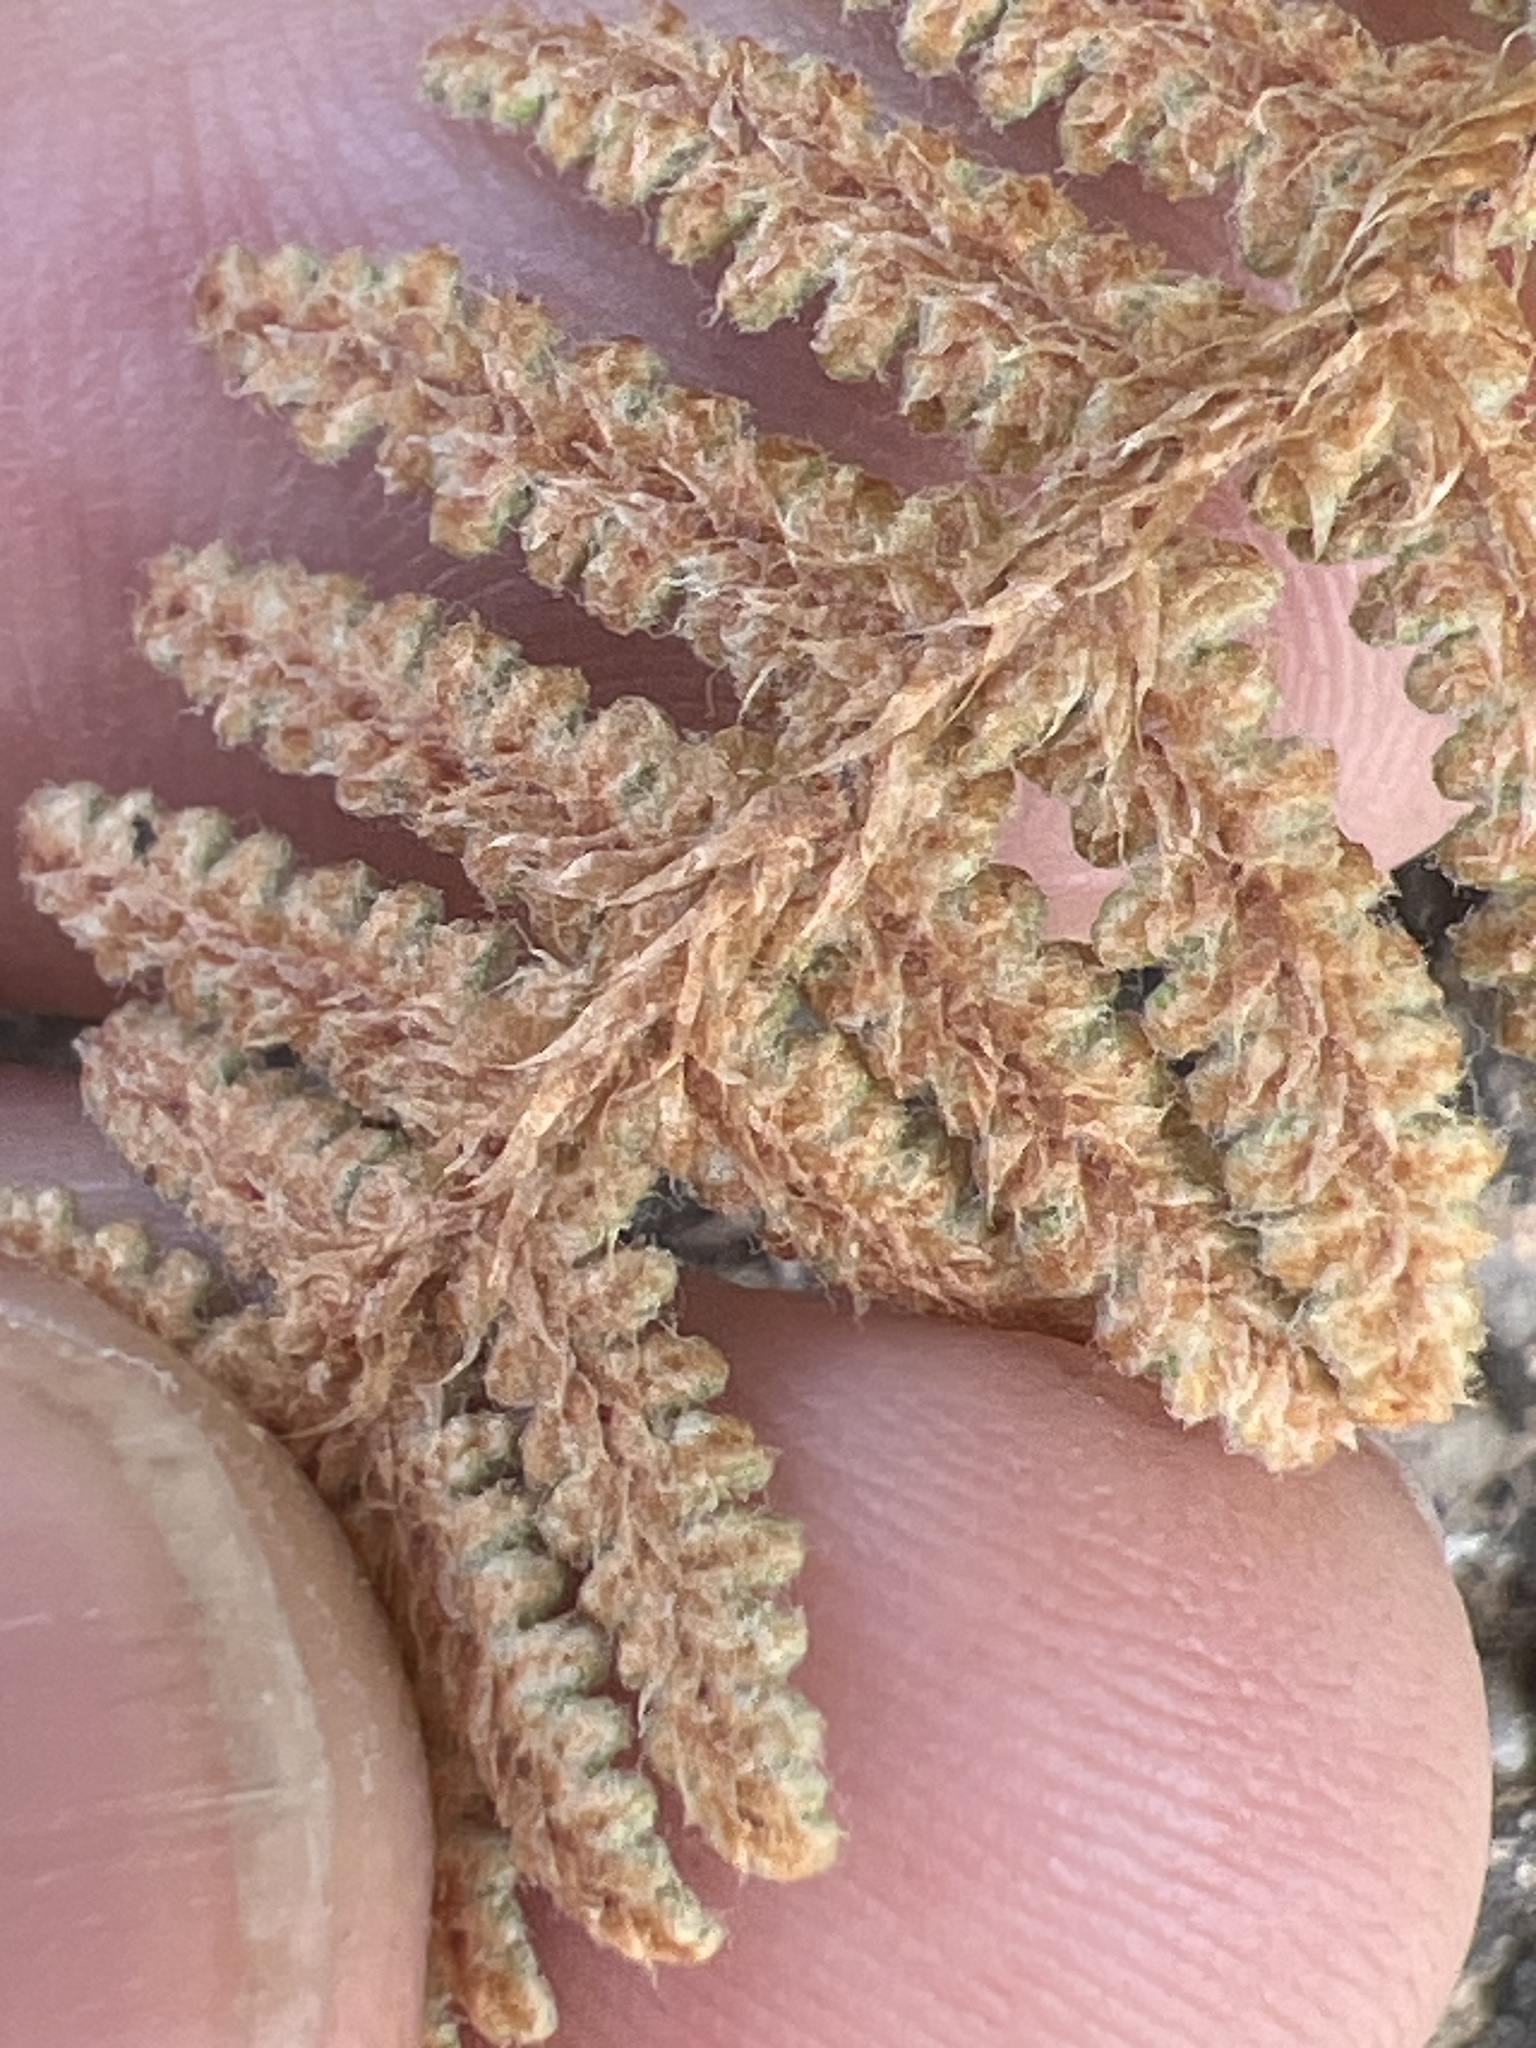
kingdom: Plantae
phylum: Tracheophyta
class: Polypodiopsida
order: Polypodiales
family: Pteridaceae
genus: Myriopteris
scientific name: Myriopteris lindheimeri
